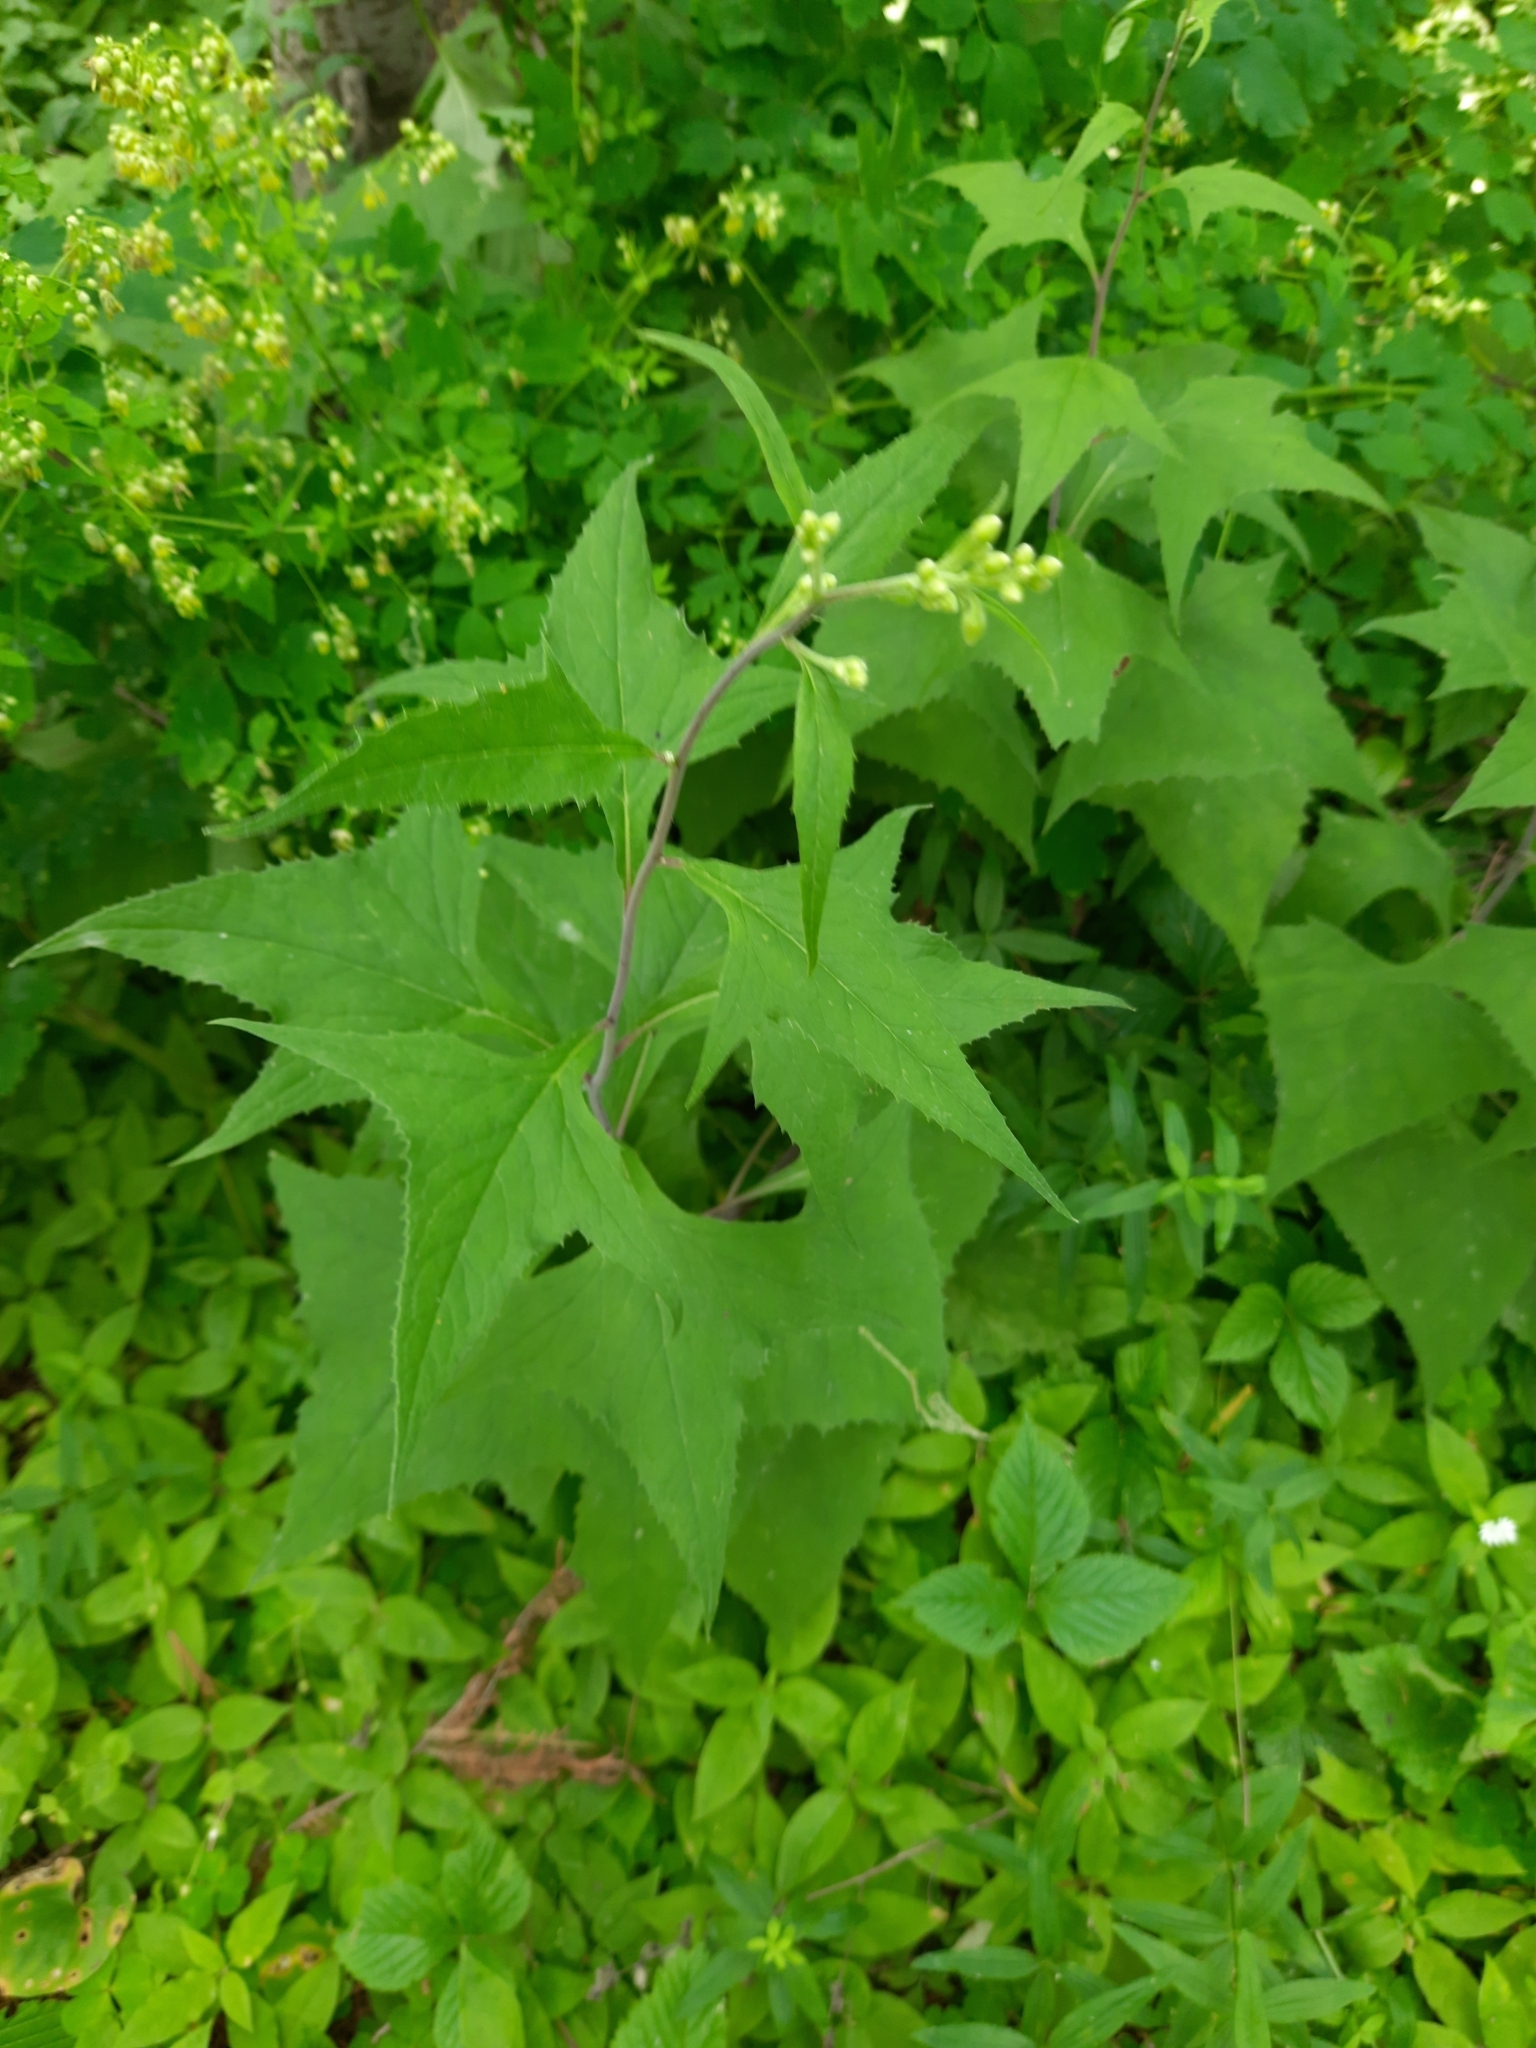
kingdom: Plantae
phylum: Tracheophyta
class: Magnoliopsida
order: Asterales
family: Asteraceae
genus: Parasenecio
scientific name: Parasenecio hastatus
